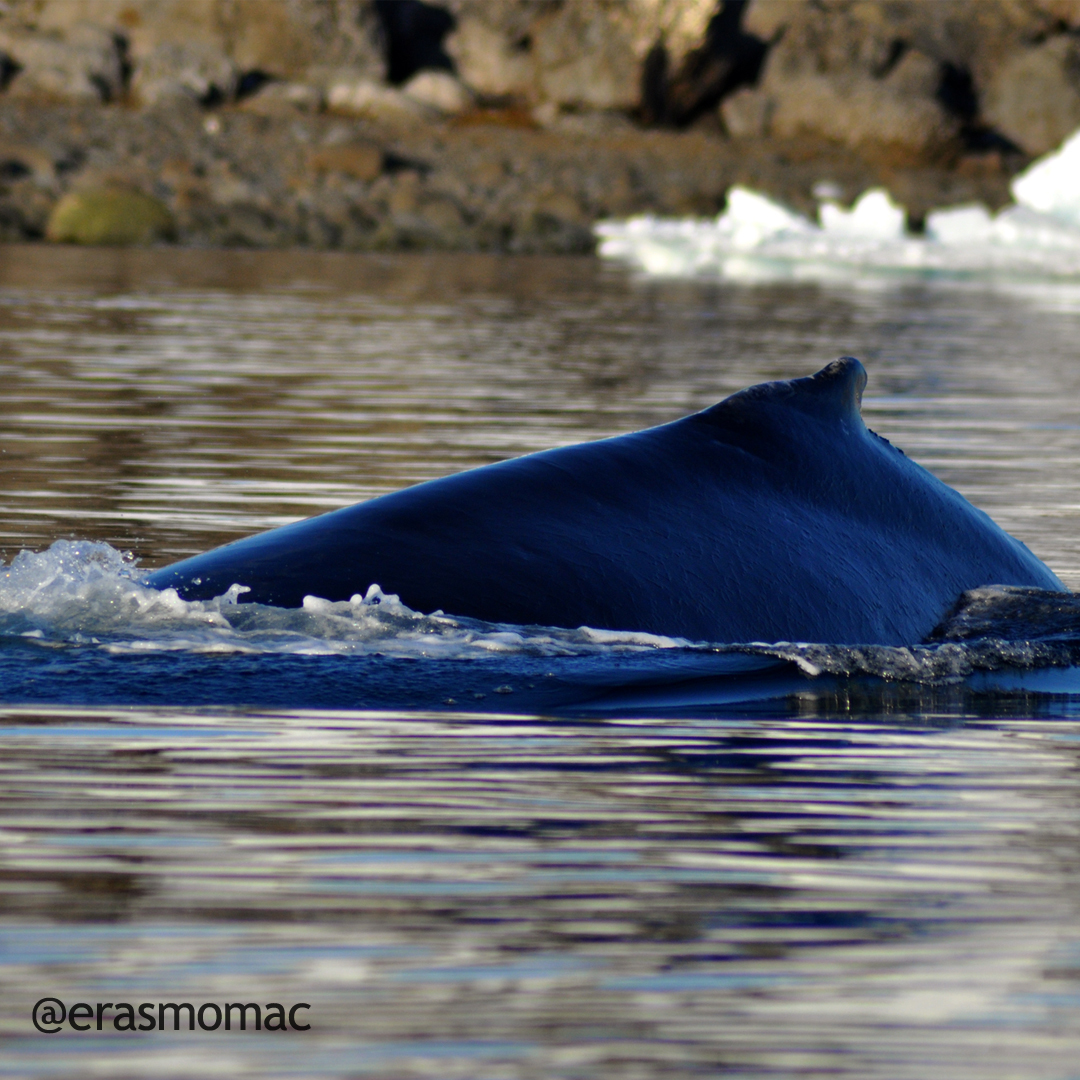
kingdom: Animalia
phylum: Chordata
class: Mammalia
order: Cetacea
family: Balaenopteridae
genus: Megaptera
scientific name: Megaptera novaeangliae
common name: Humpback whale
